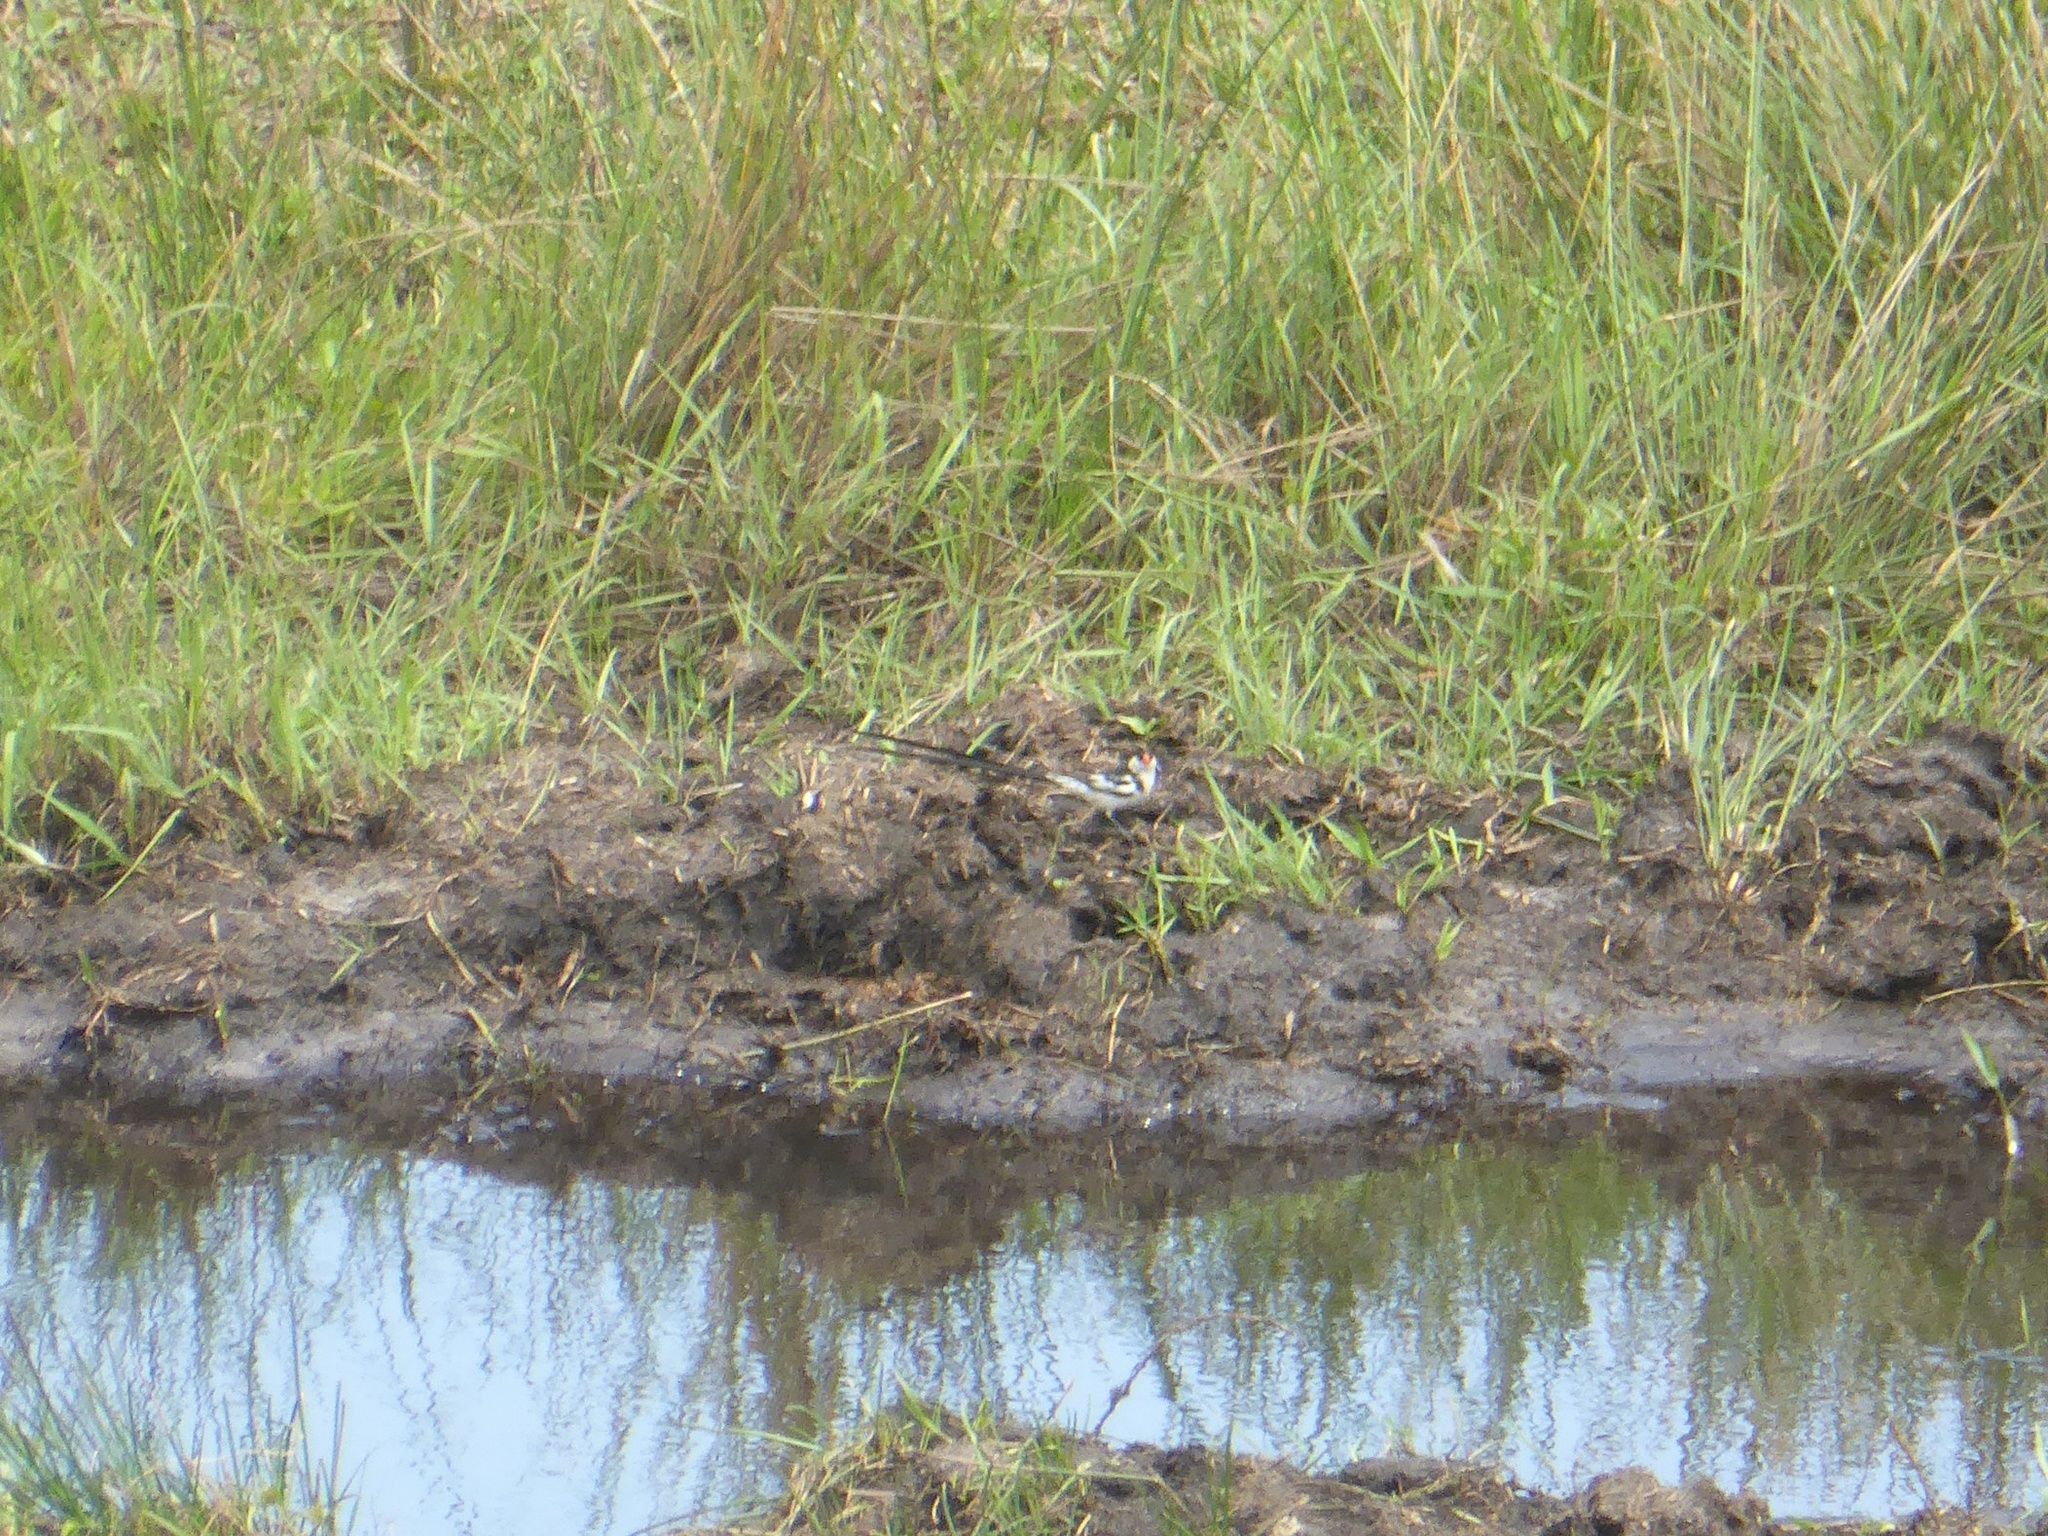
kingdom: Animalia
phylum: Chordata
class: Aves
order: Passeriformes
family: Viduidae
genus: Vidua
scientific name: Vidua macroura
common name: Pin-tailed whydah
